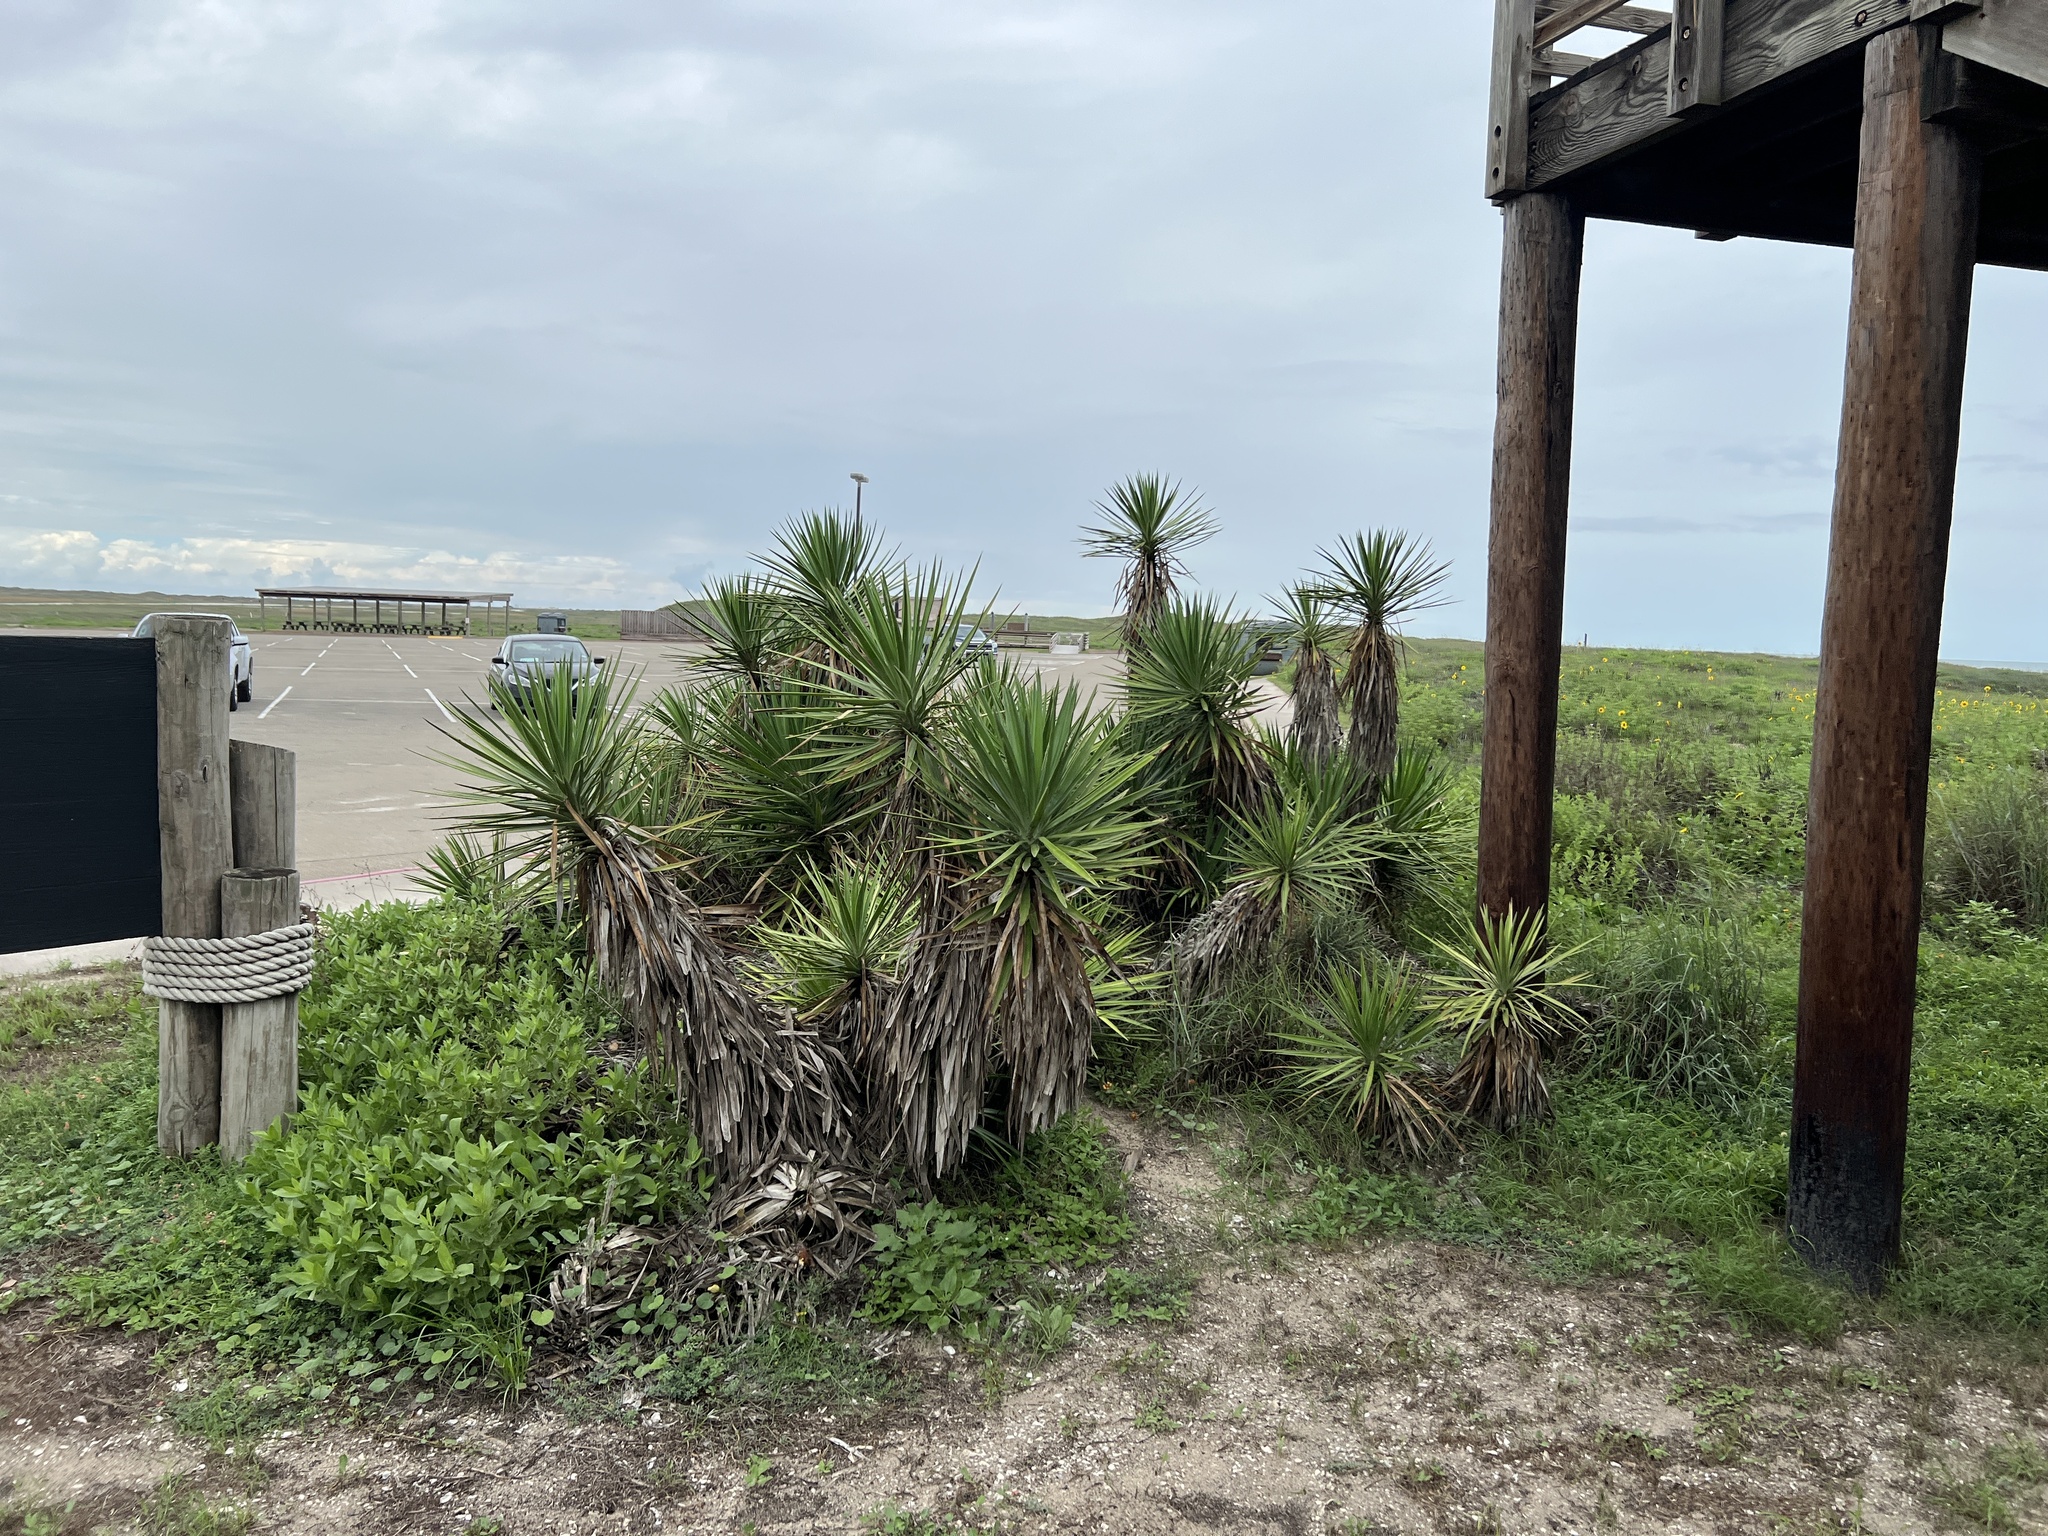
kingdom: Plantae
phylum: Tracheophyta
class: Liliopsida
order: Asparagales
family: Asparagaceae
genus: Yucca
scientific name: Yucca aloifolia
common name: Aloe yucca
